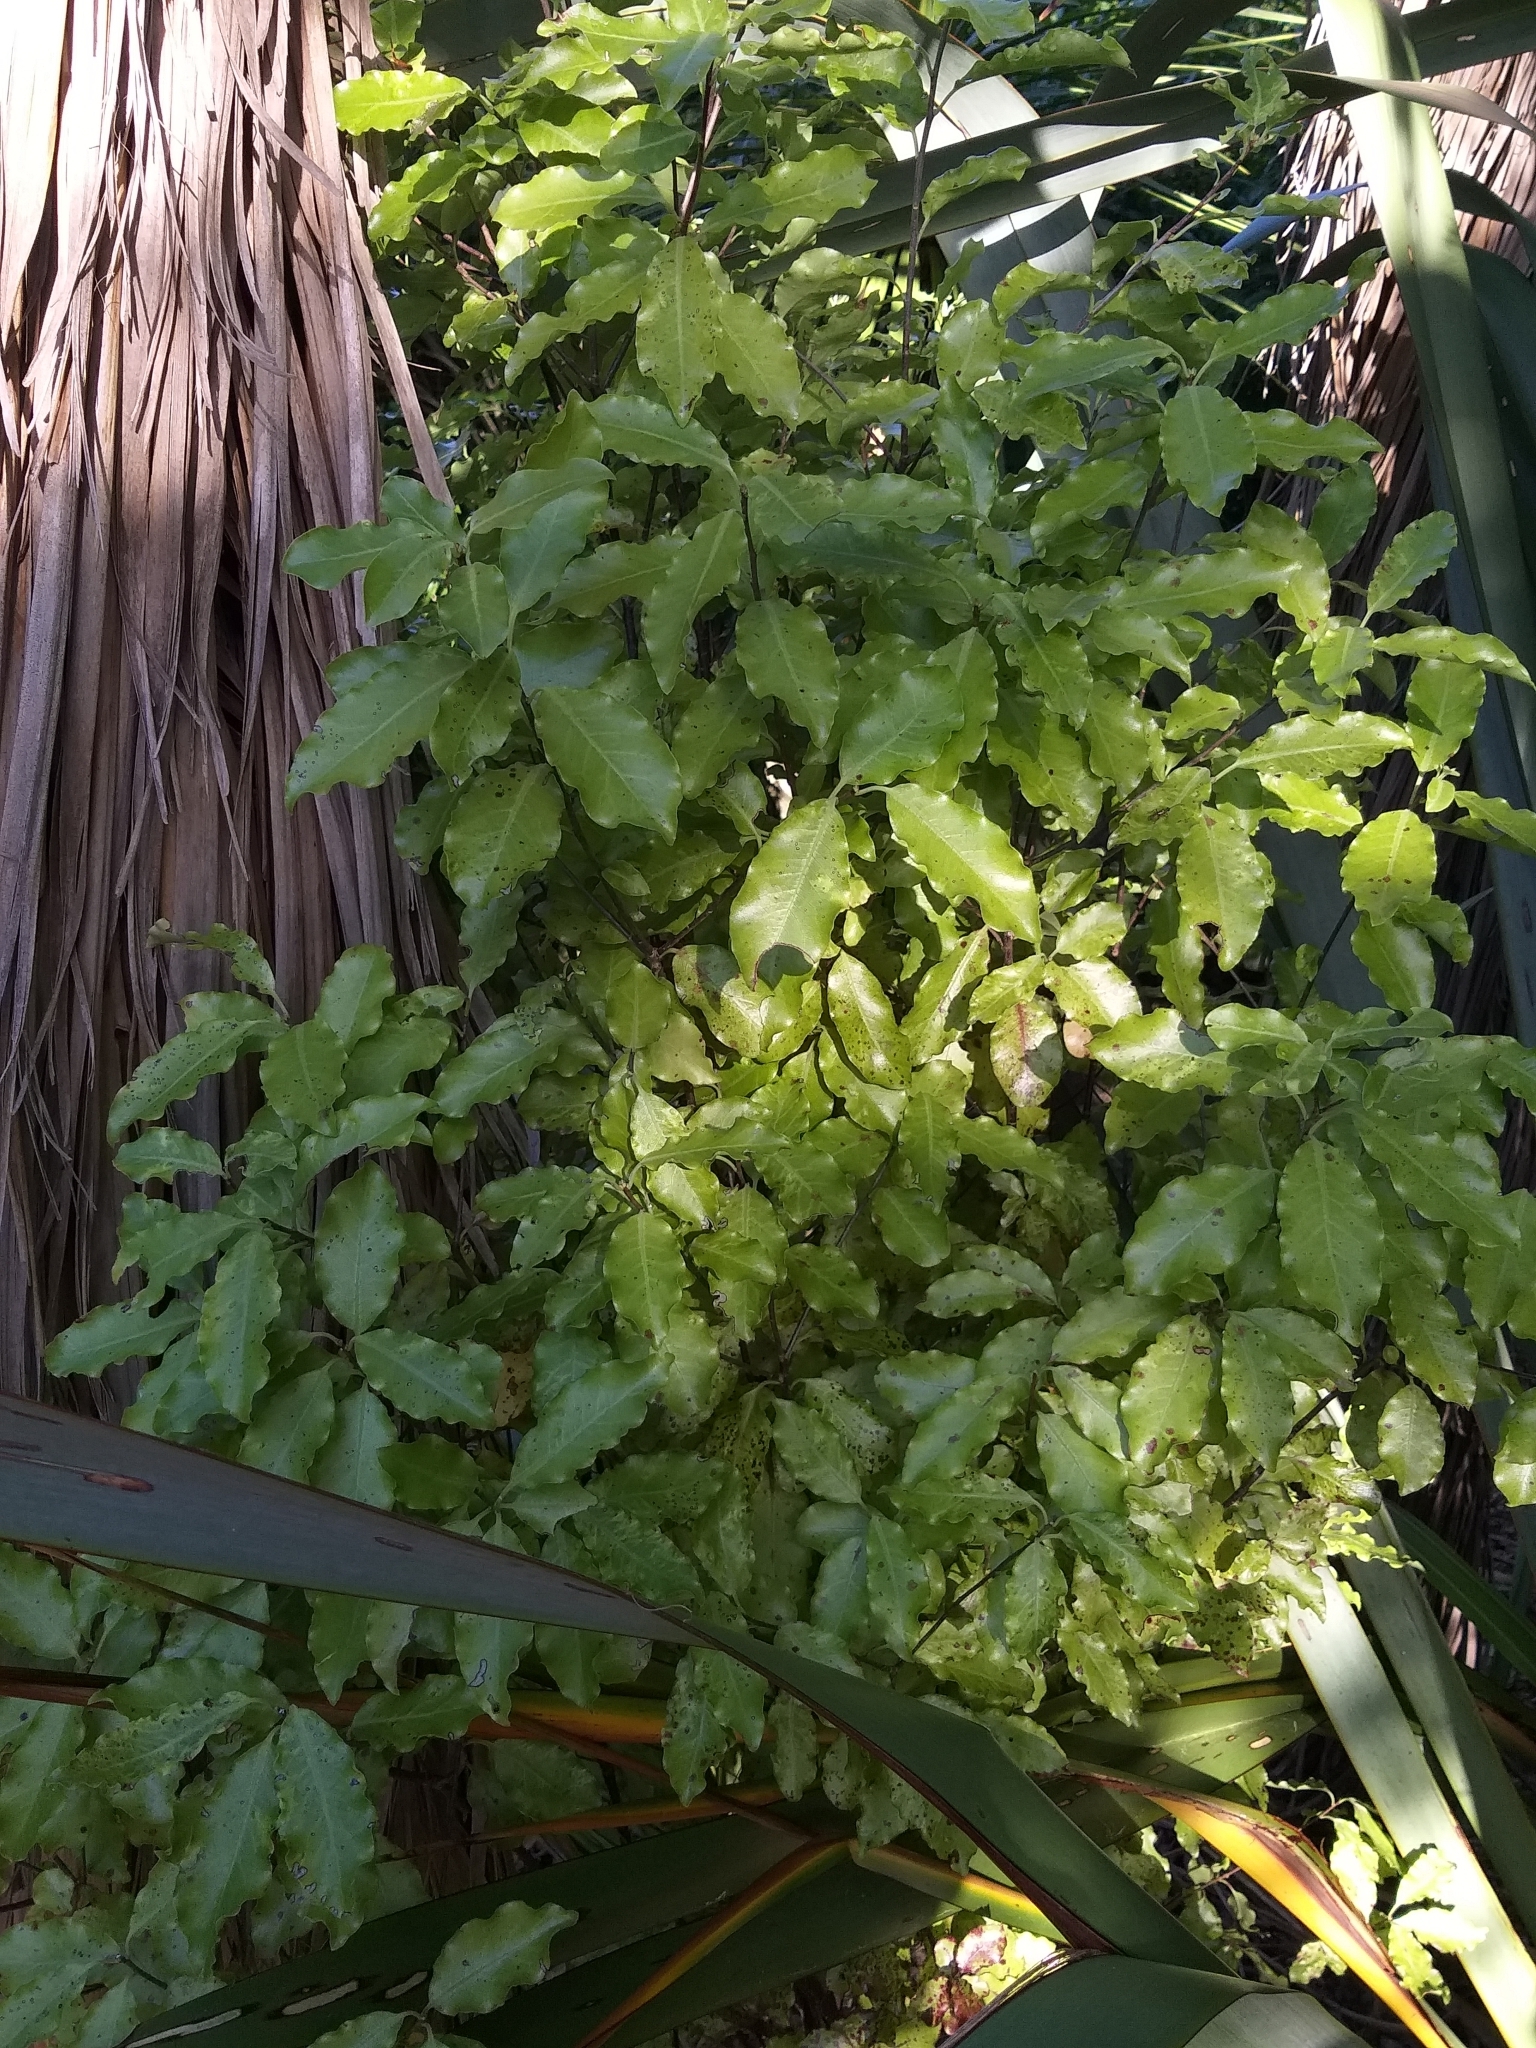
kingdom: Plantae
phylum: Tracheophyta
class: Magnoliopsida
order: Apiales
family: Pittosporaceae
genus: Pittosporum
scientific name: Pittosporum tenuifolium
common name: Kohuhu
